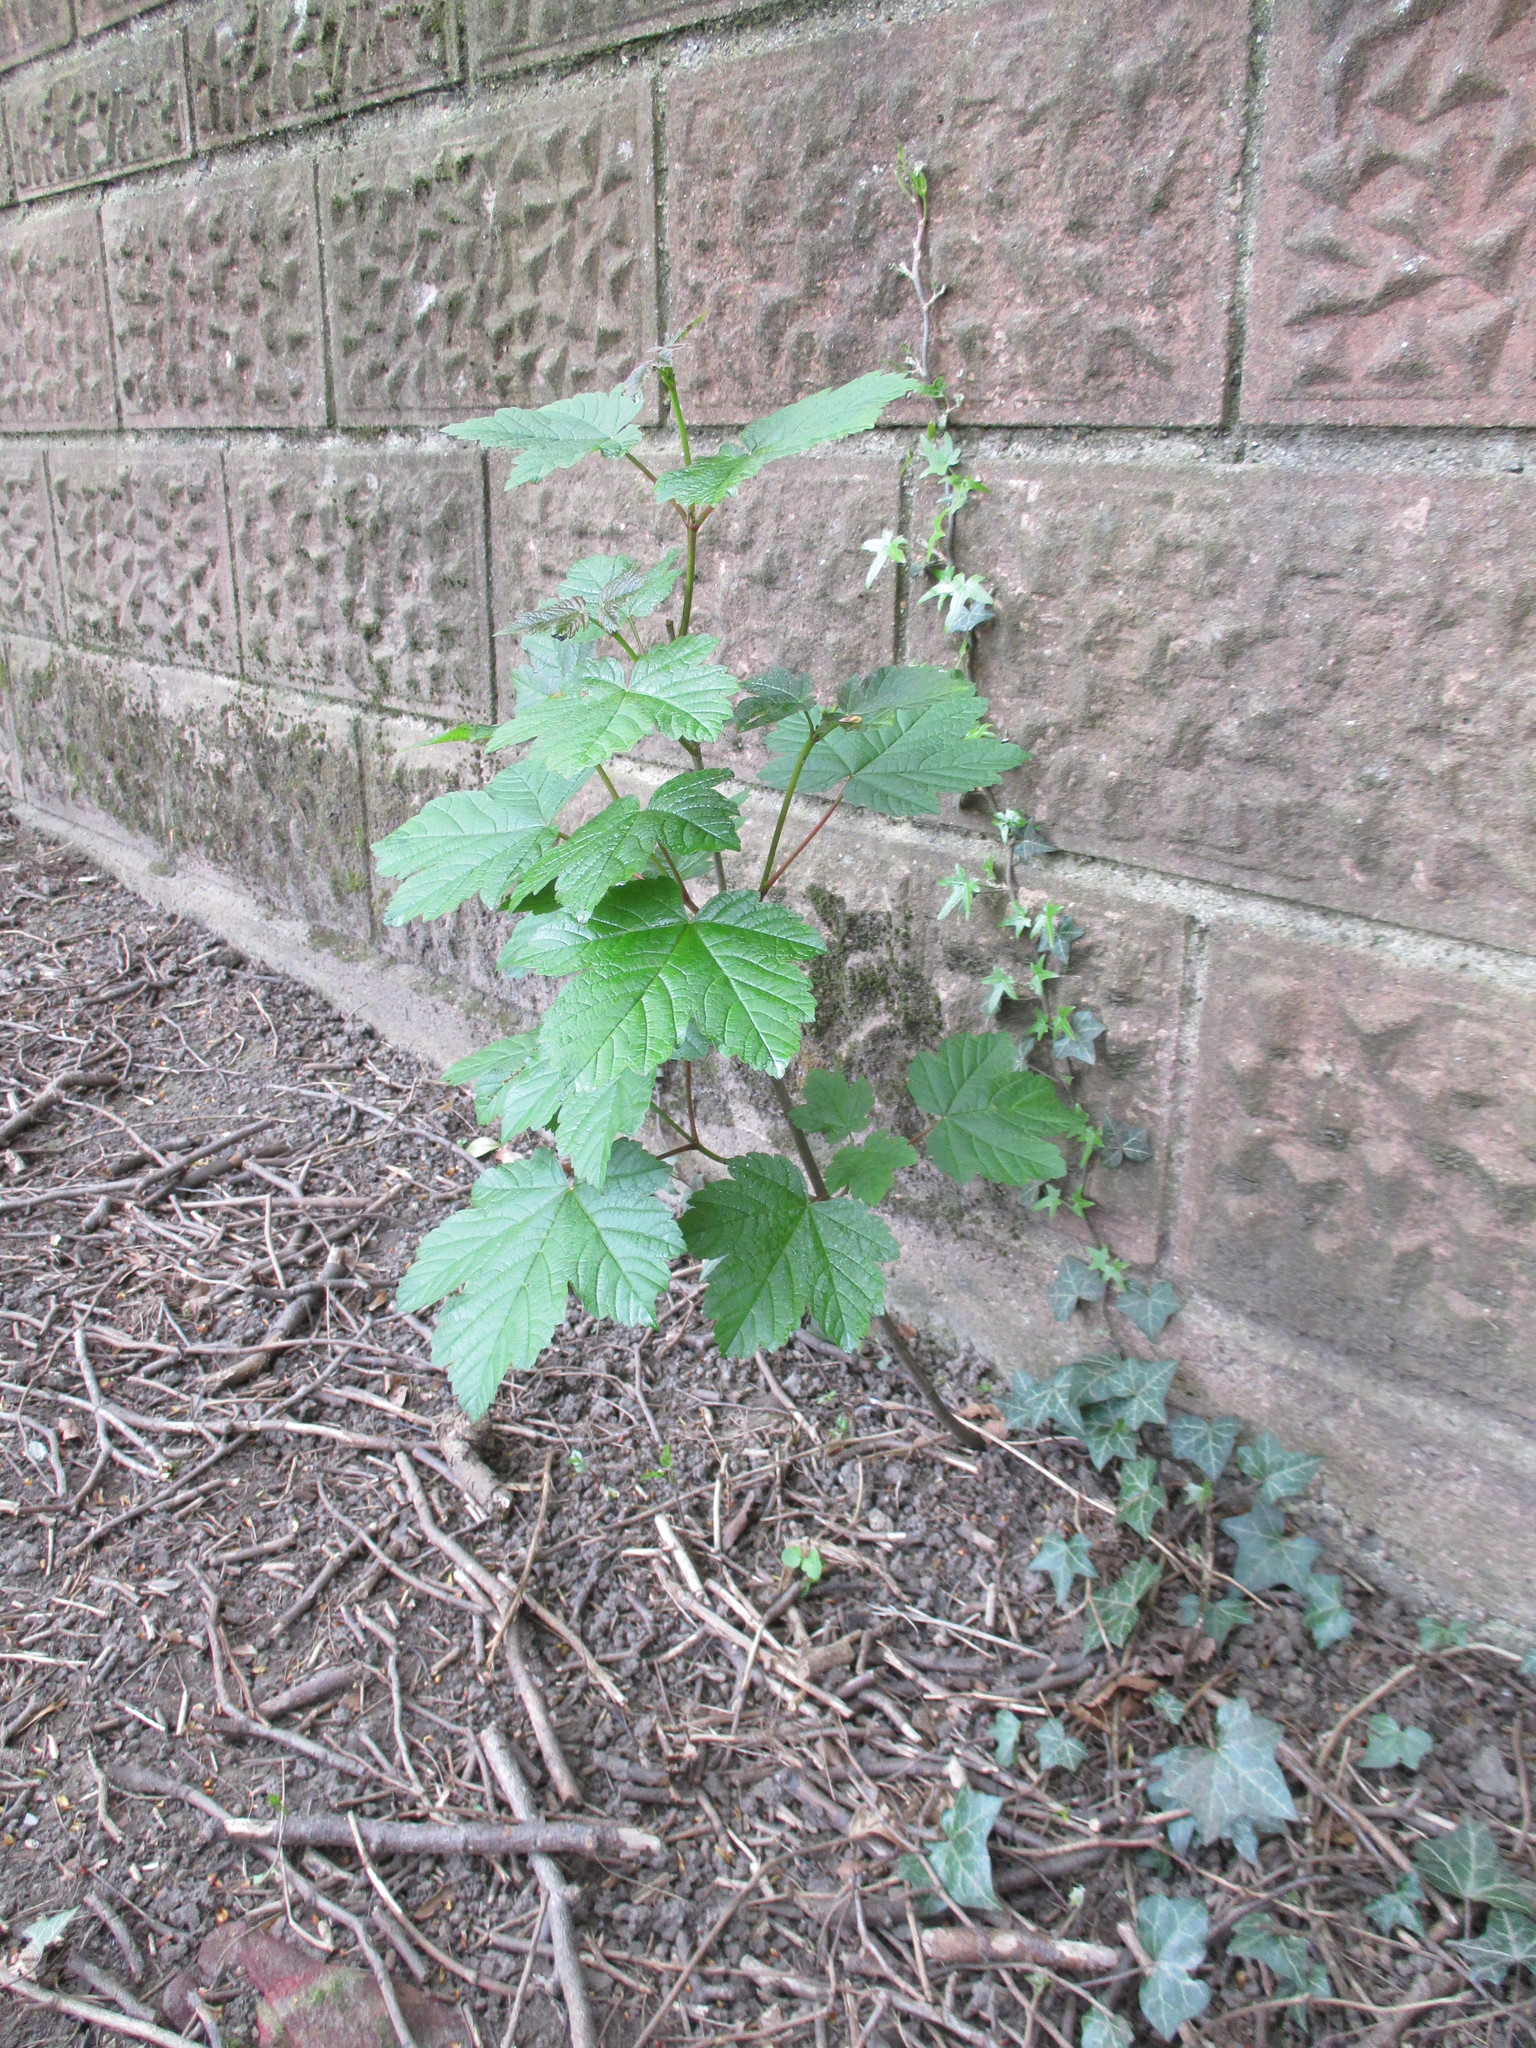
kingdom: Plantae
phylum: Tracheophyta
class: Magnoliopsida
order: Sapindales
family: Sapindaceae
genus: Acer
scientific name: Acer pseudoplatanus
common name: Sycamore
